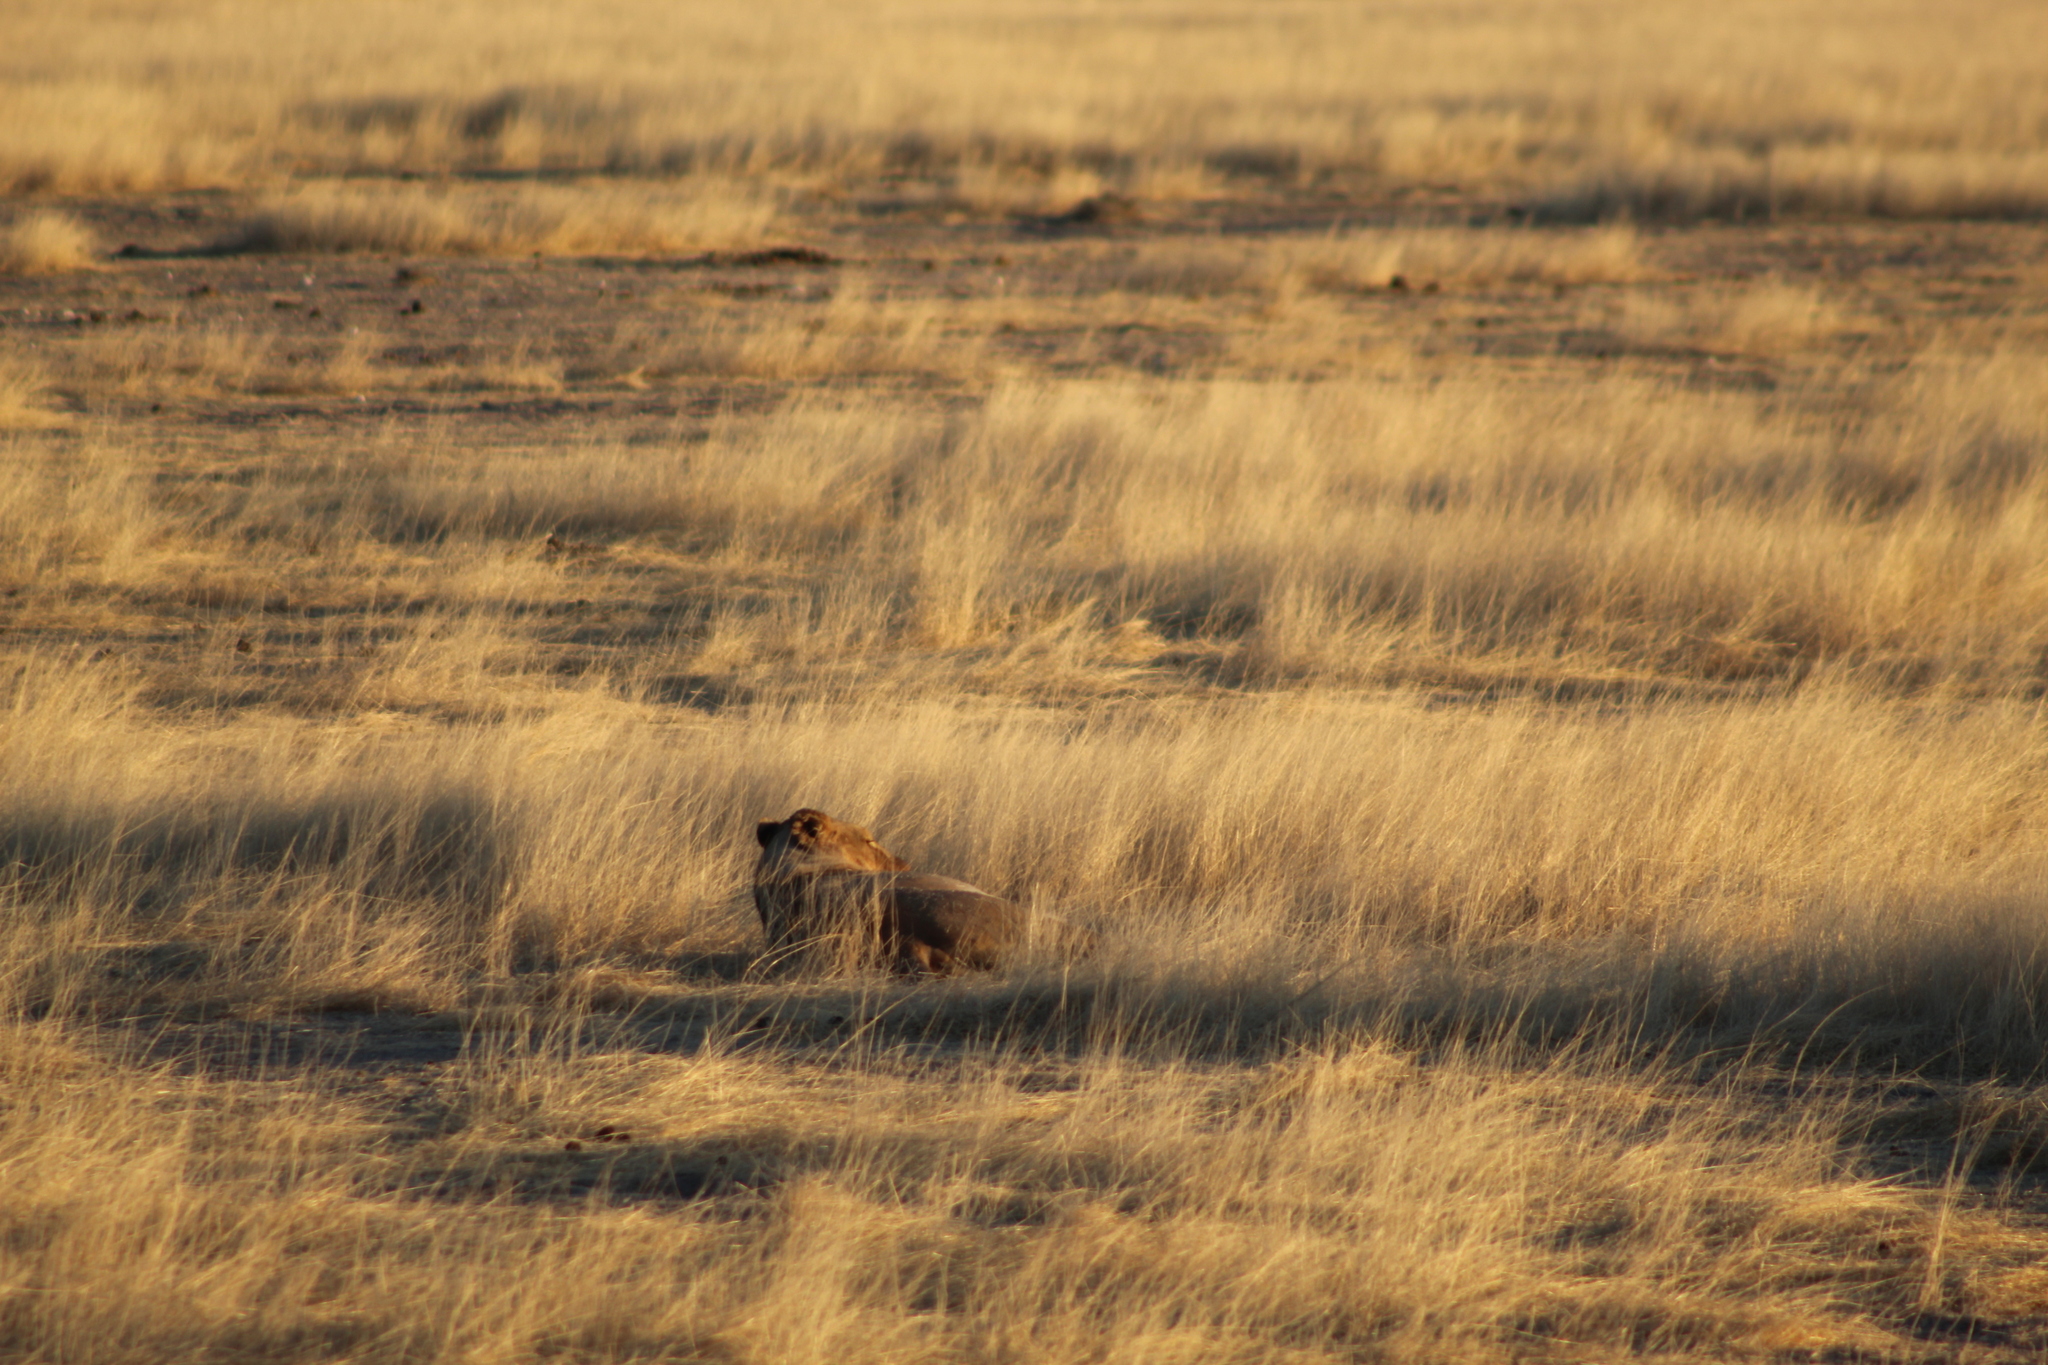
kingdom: Animalia
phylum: Chordata
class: Mammalia
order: Carnivora
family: Felidae
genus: Panthera
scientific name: Panthera leo
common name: Lion
